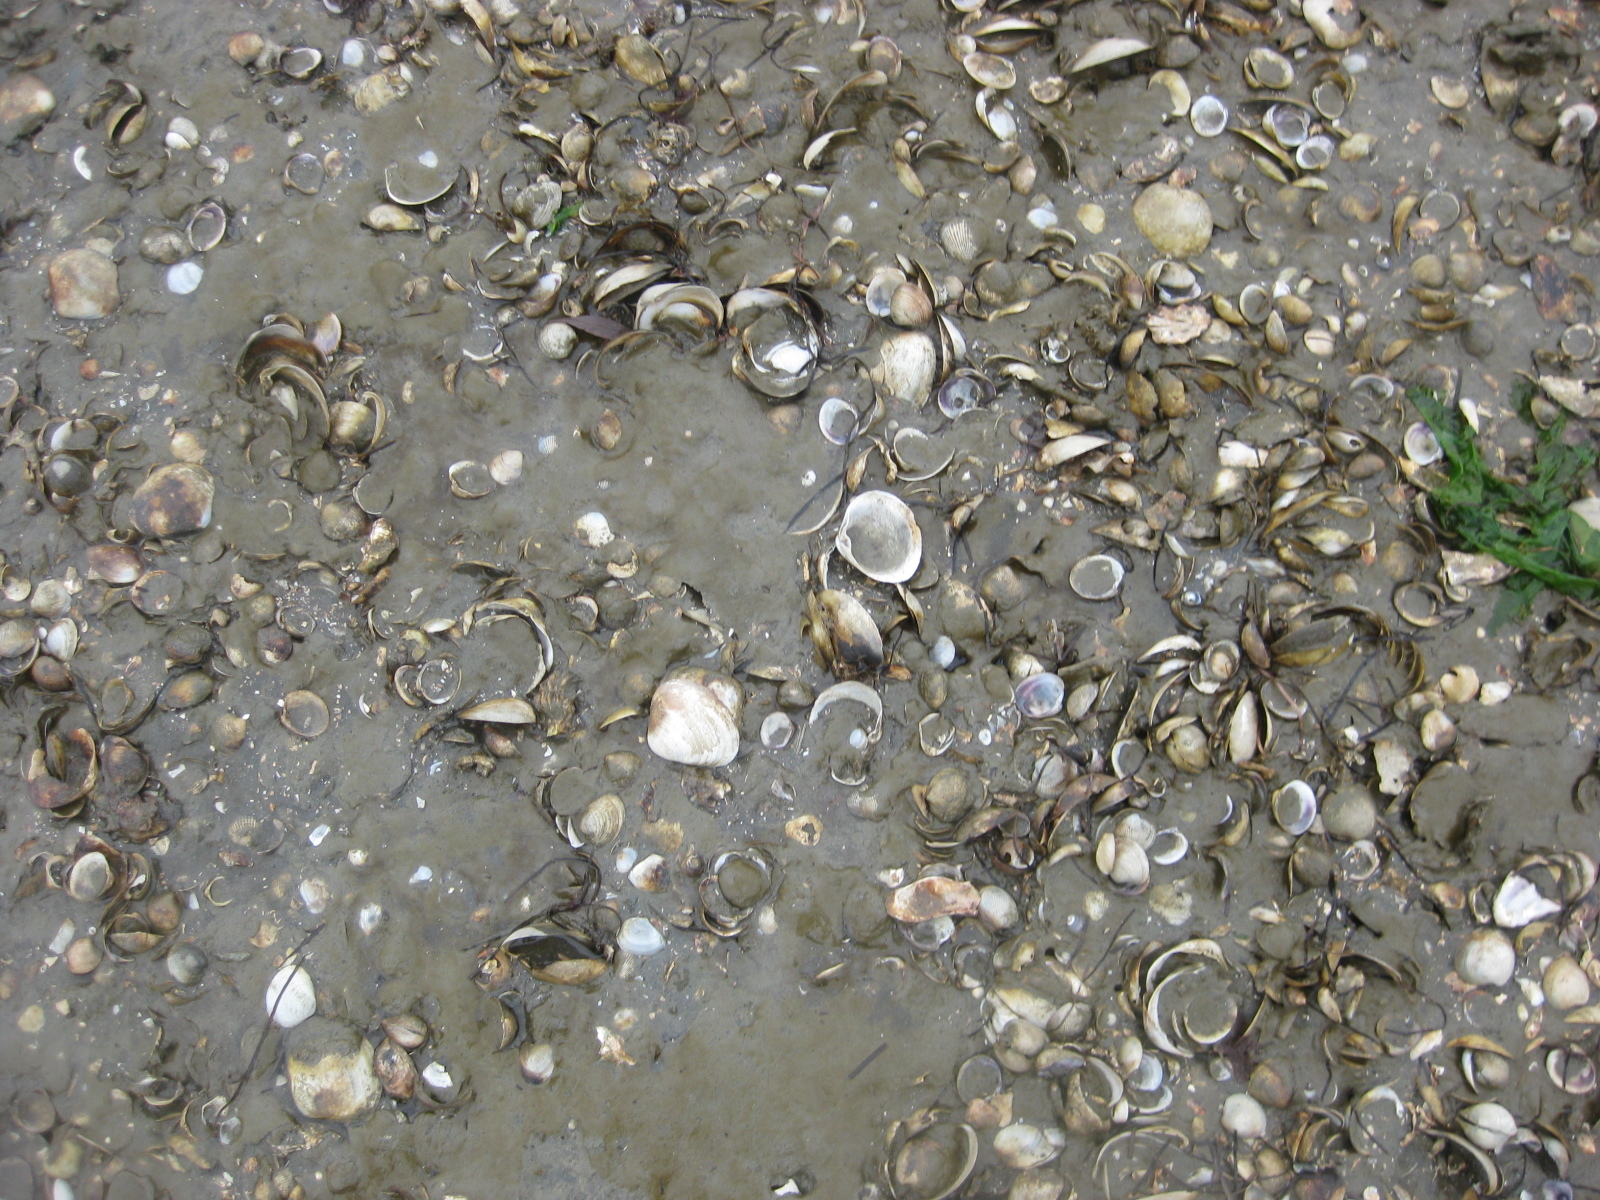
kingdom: Animalia
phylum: Mollusca
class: Bivalvia
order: Venerida
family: Mactridae
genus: Cyclomactra
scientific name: Cyclomactra ovata
